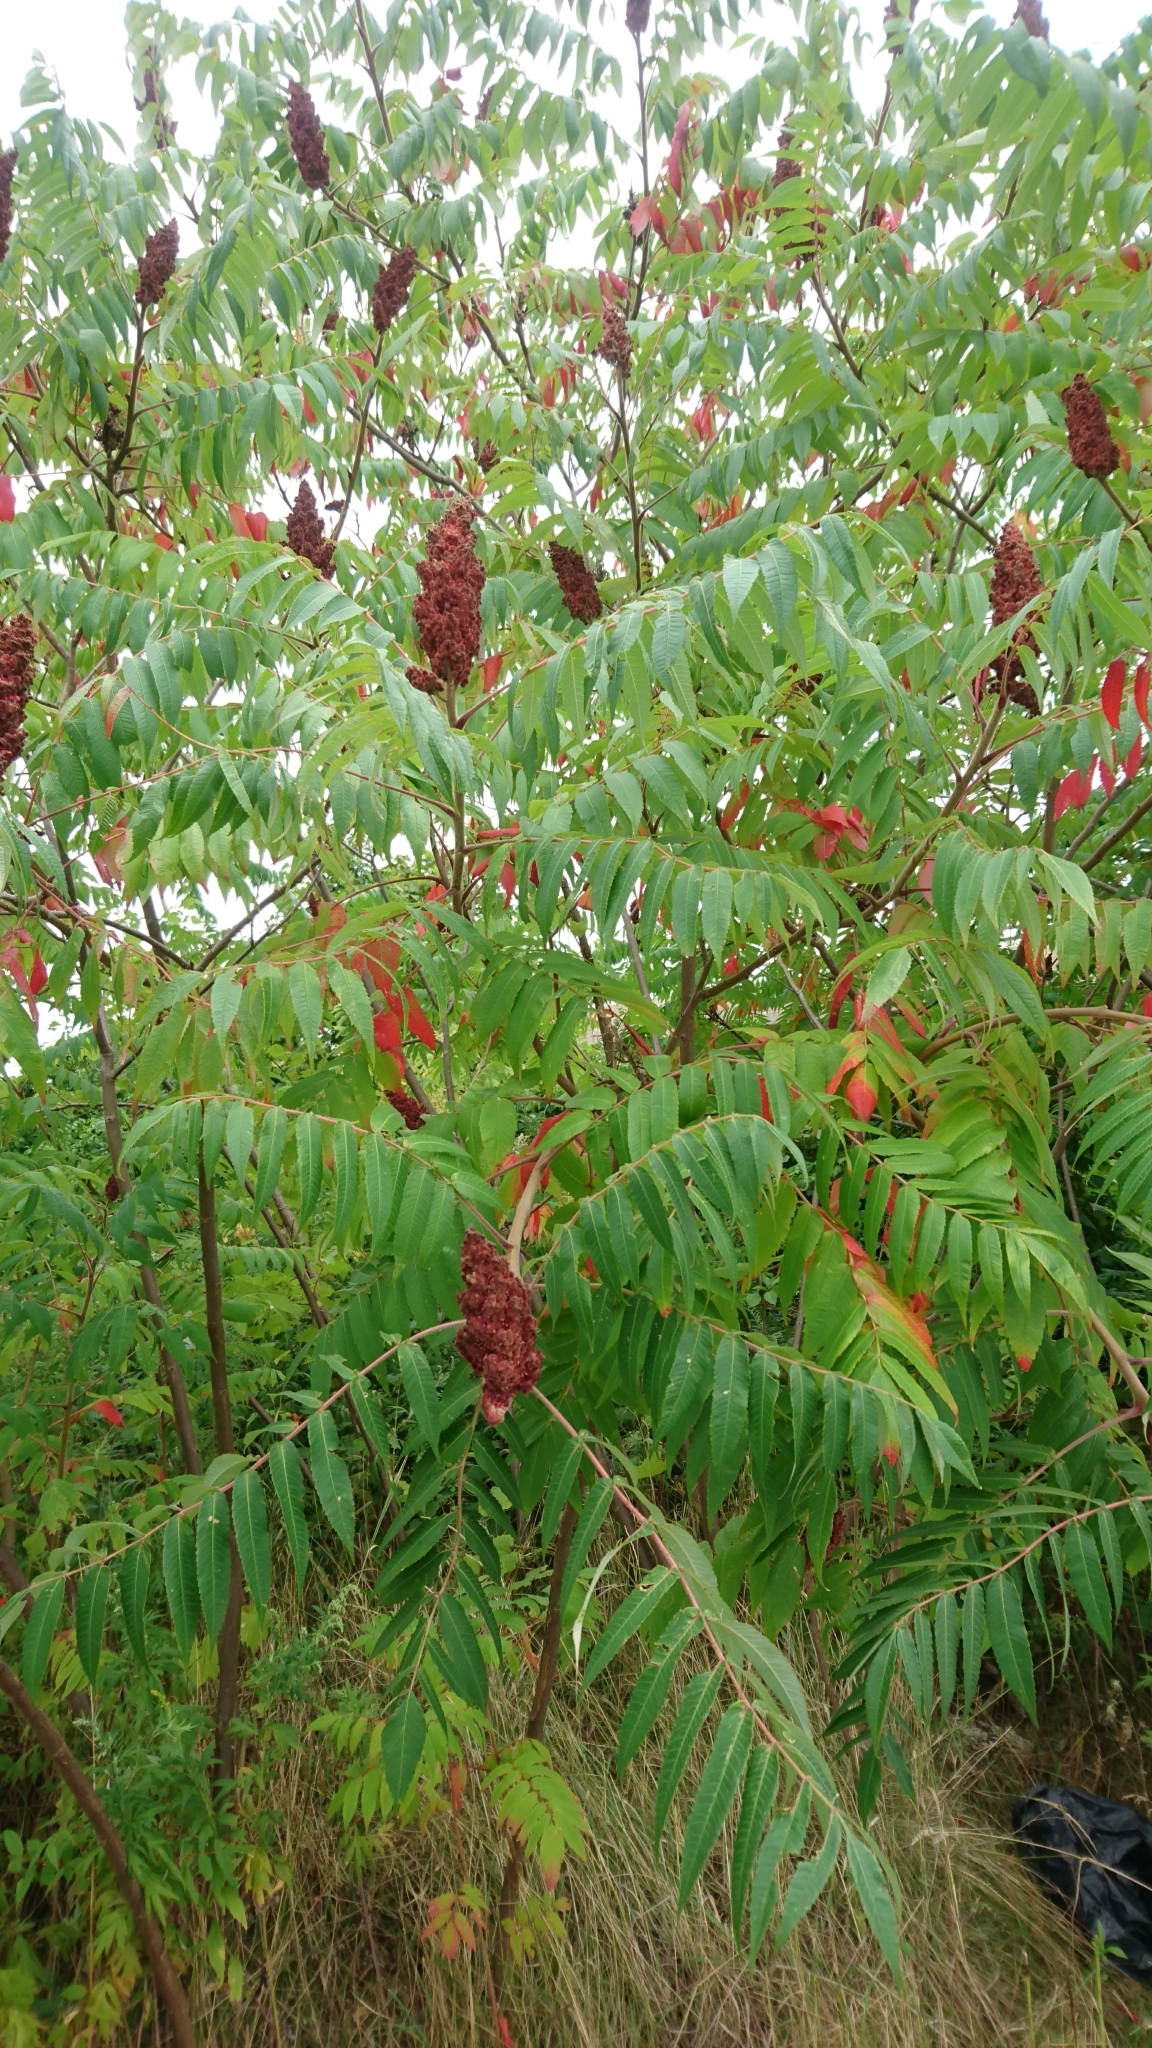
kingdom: Plantae
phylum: Tracheophyta
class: Magnoliopsida
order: Sapindales
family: Anacardiaceae
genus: Rhus
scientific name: Rhus typhina
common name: Staghorn sumac
